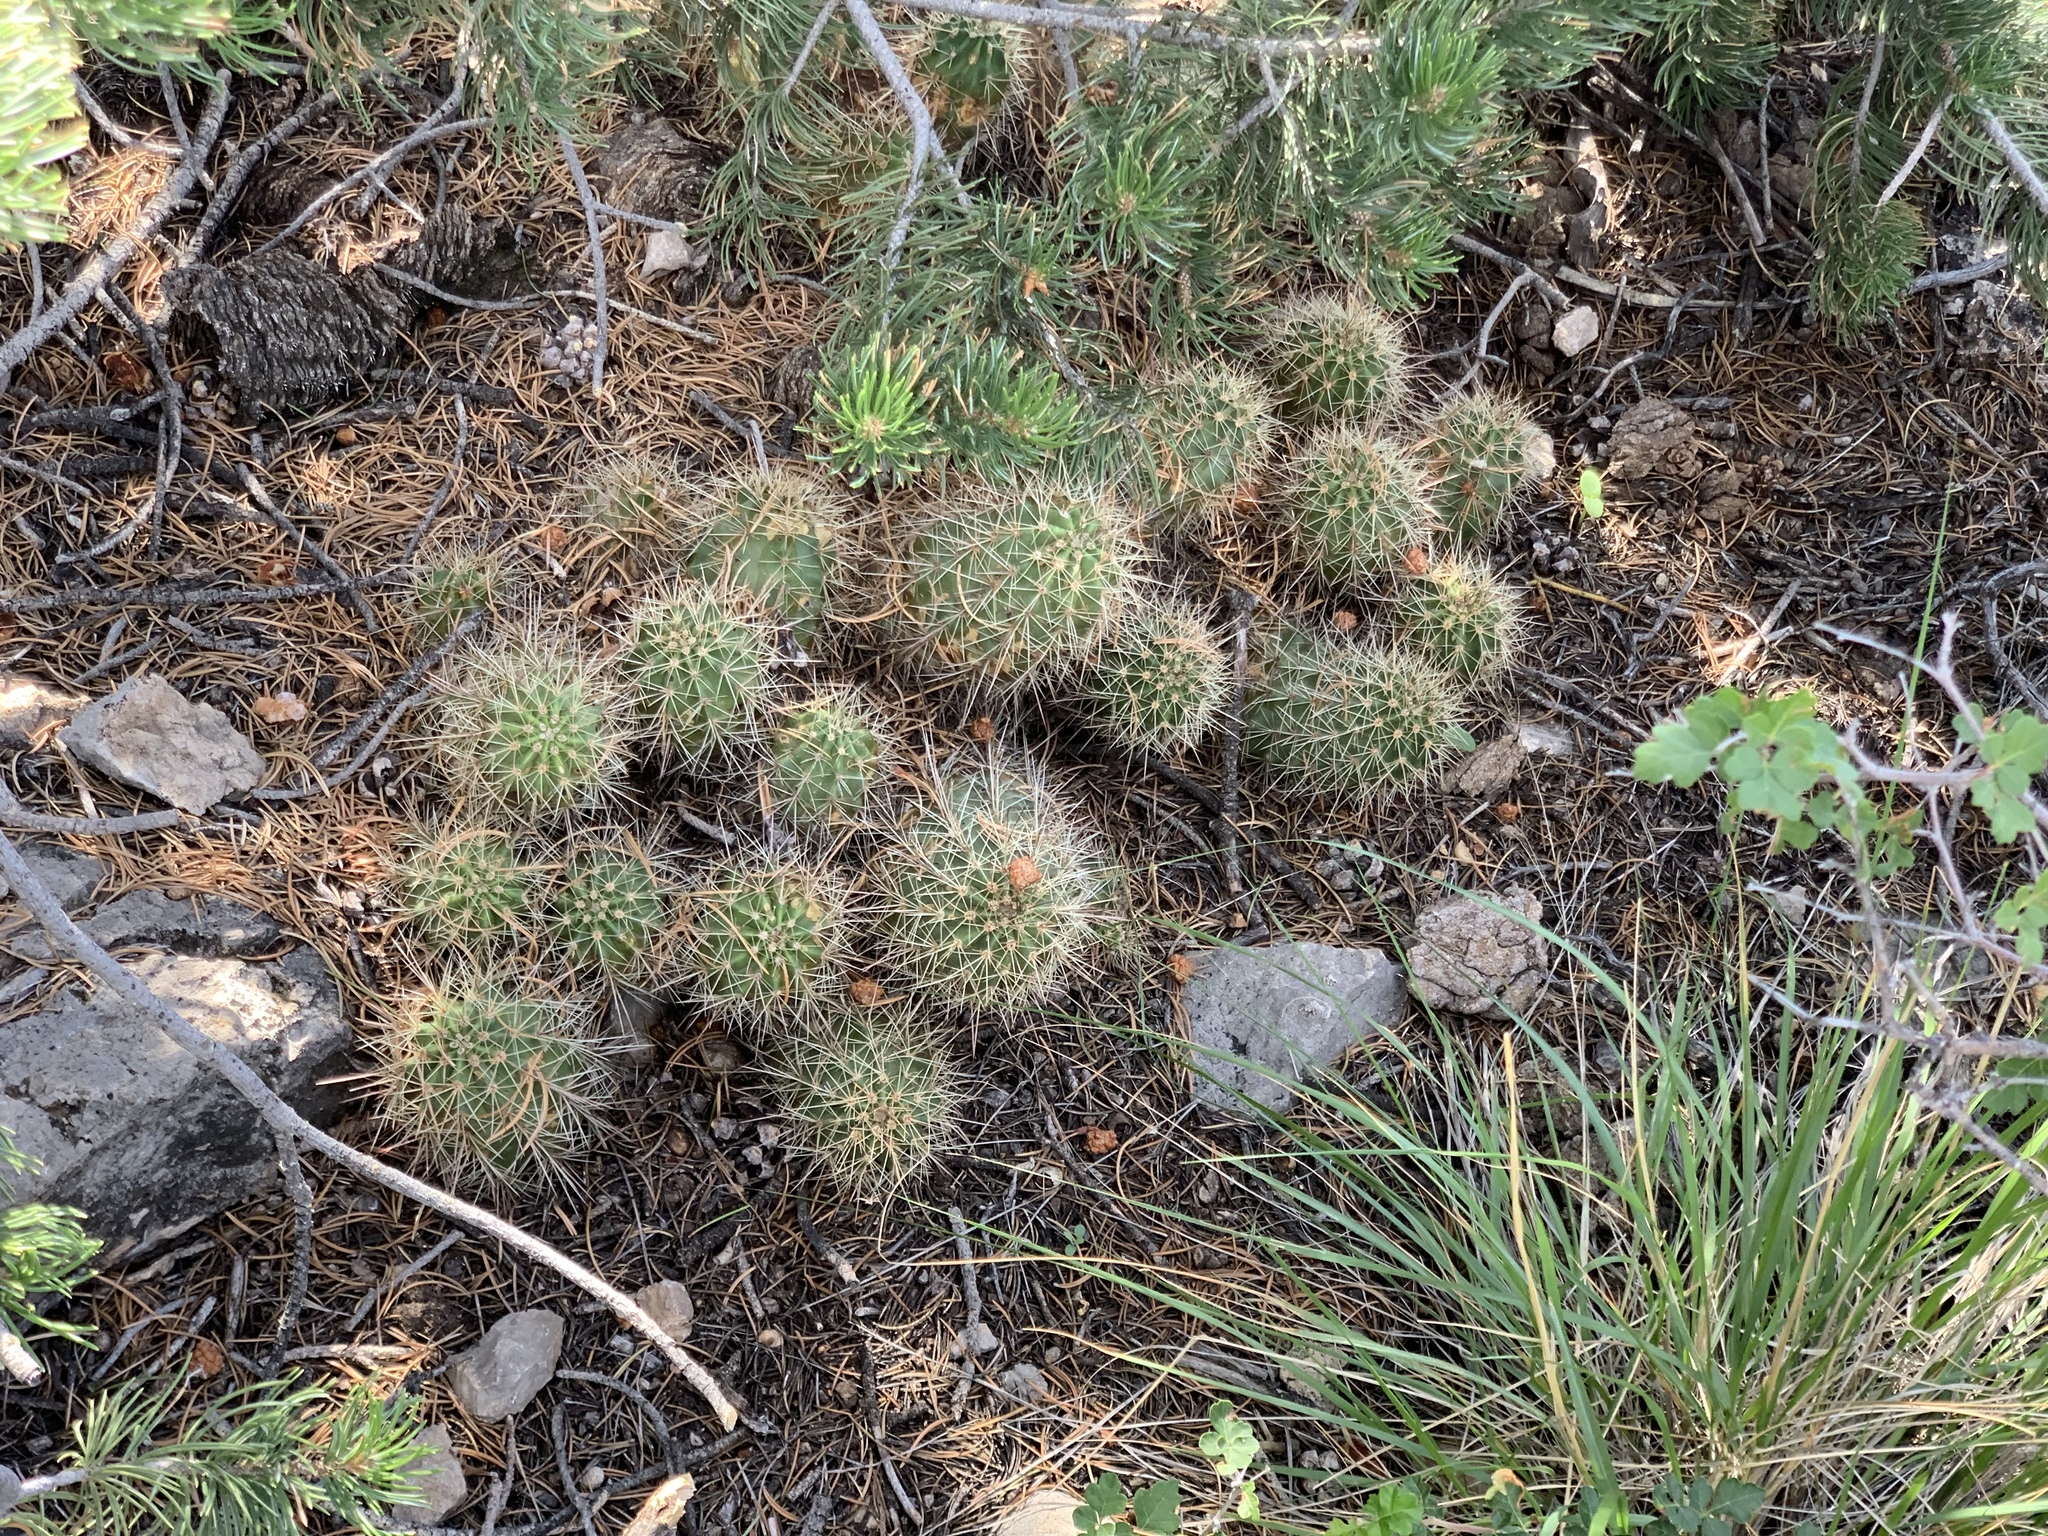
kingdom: Plantae
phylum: Tracheophyta
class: Magnoliopsida
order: Caryophyllales
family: Cactaceae
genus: Echinocereus
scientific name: Echinocereus coccineus
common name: Scarlet hedgehog cactus
